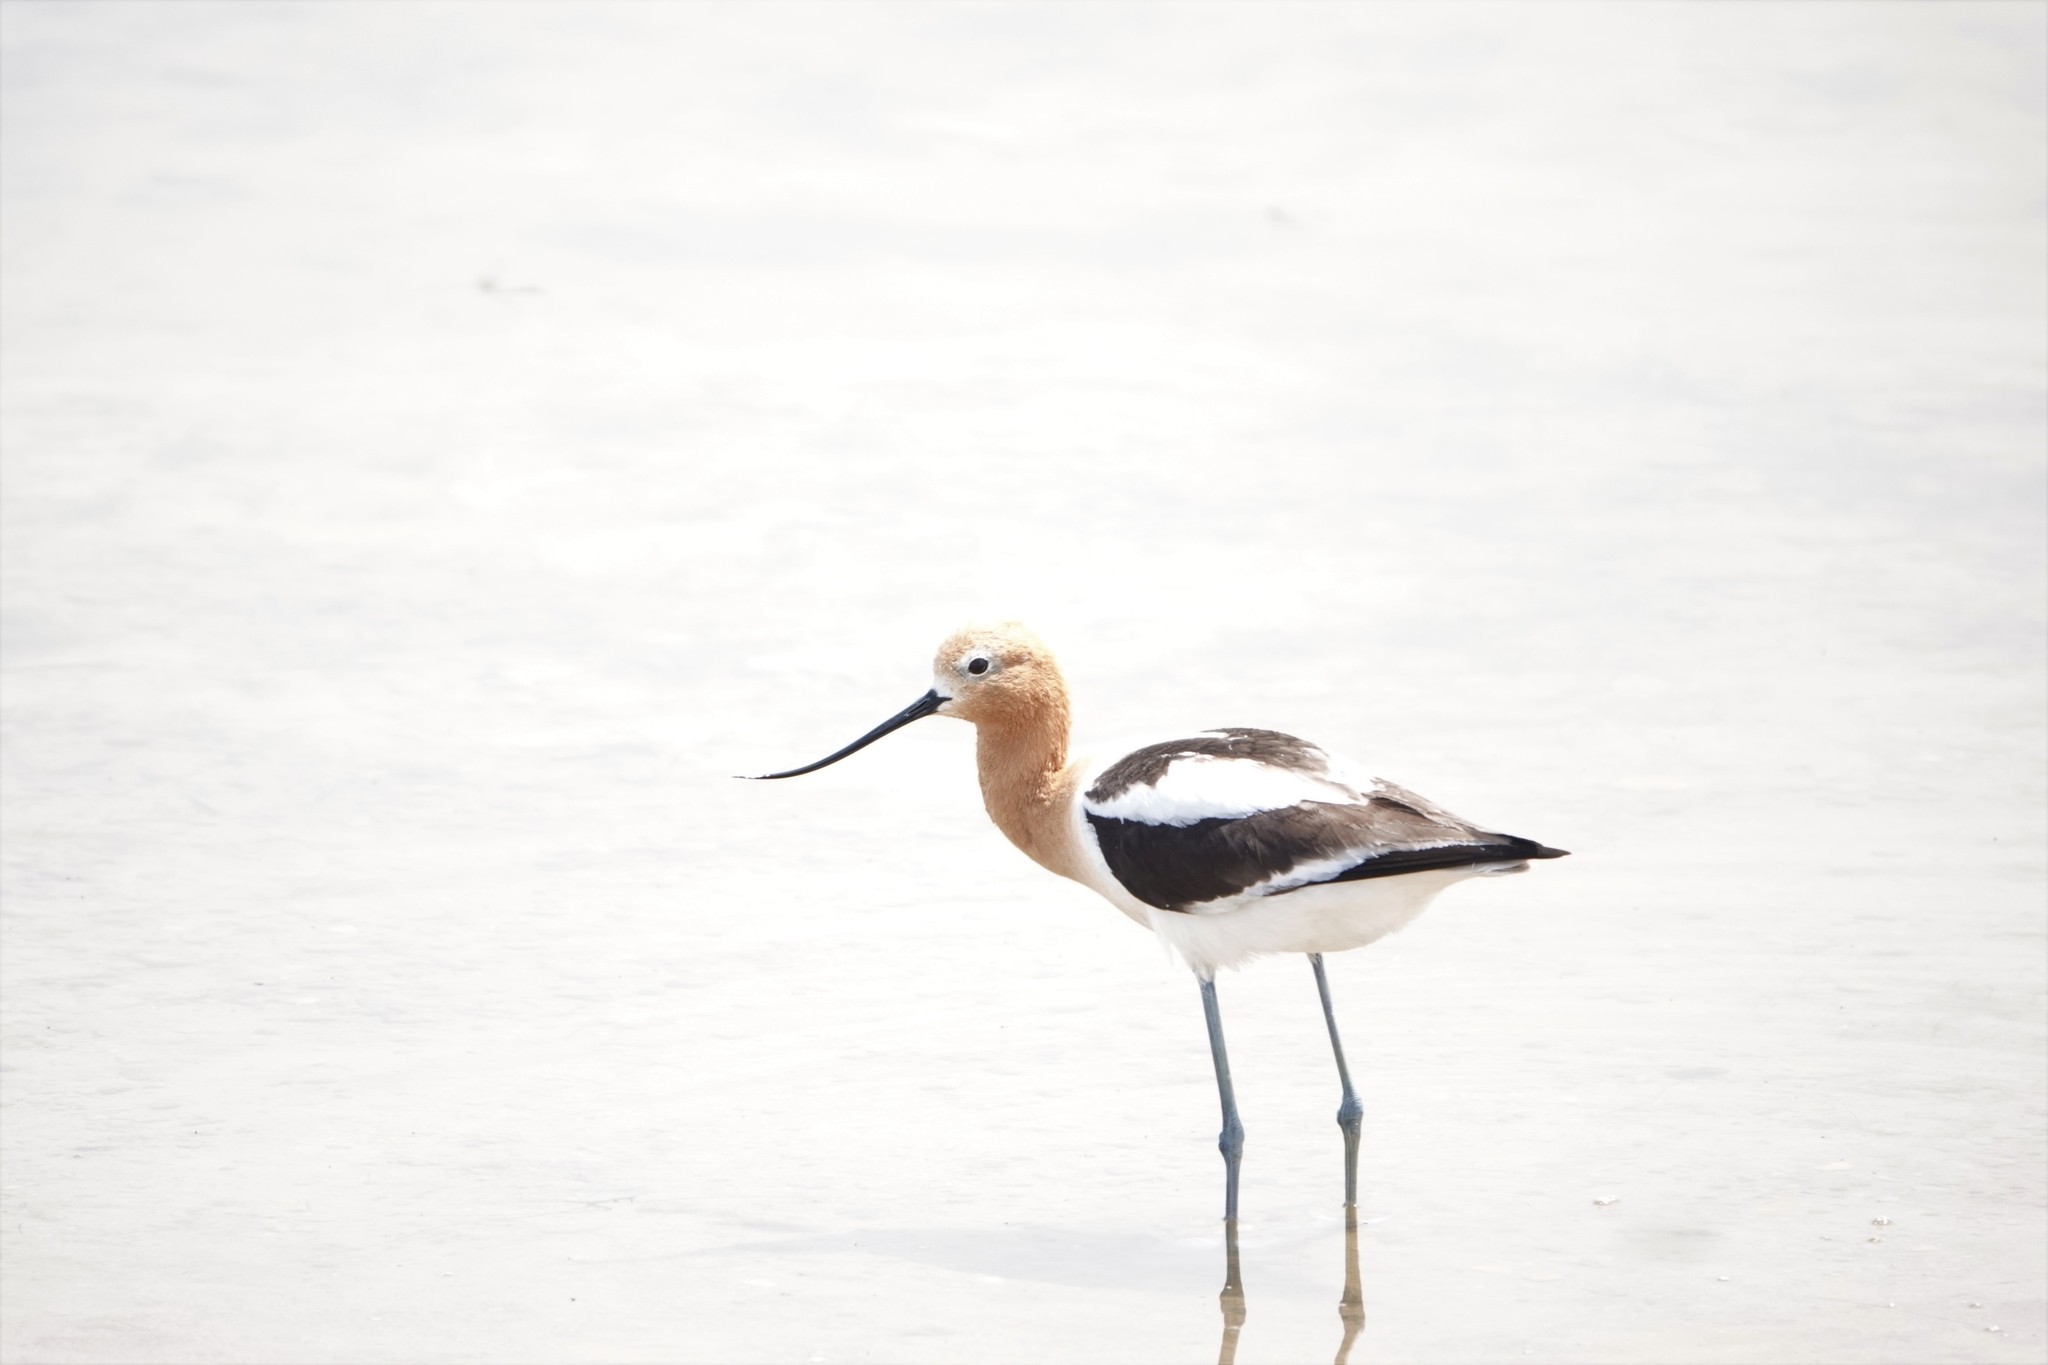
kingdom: Animalia
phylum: Chordata
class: Aves
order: Charadriiformes
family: Recurvirostridae
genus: Recurvirostra
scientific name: Recurvirostra americana
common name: American avocet
